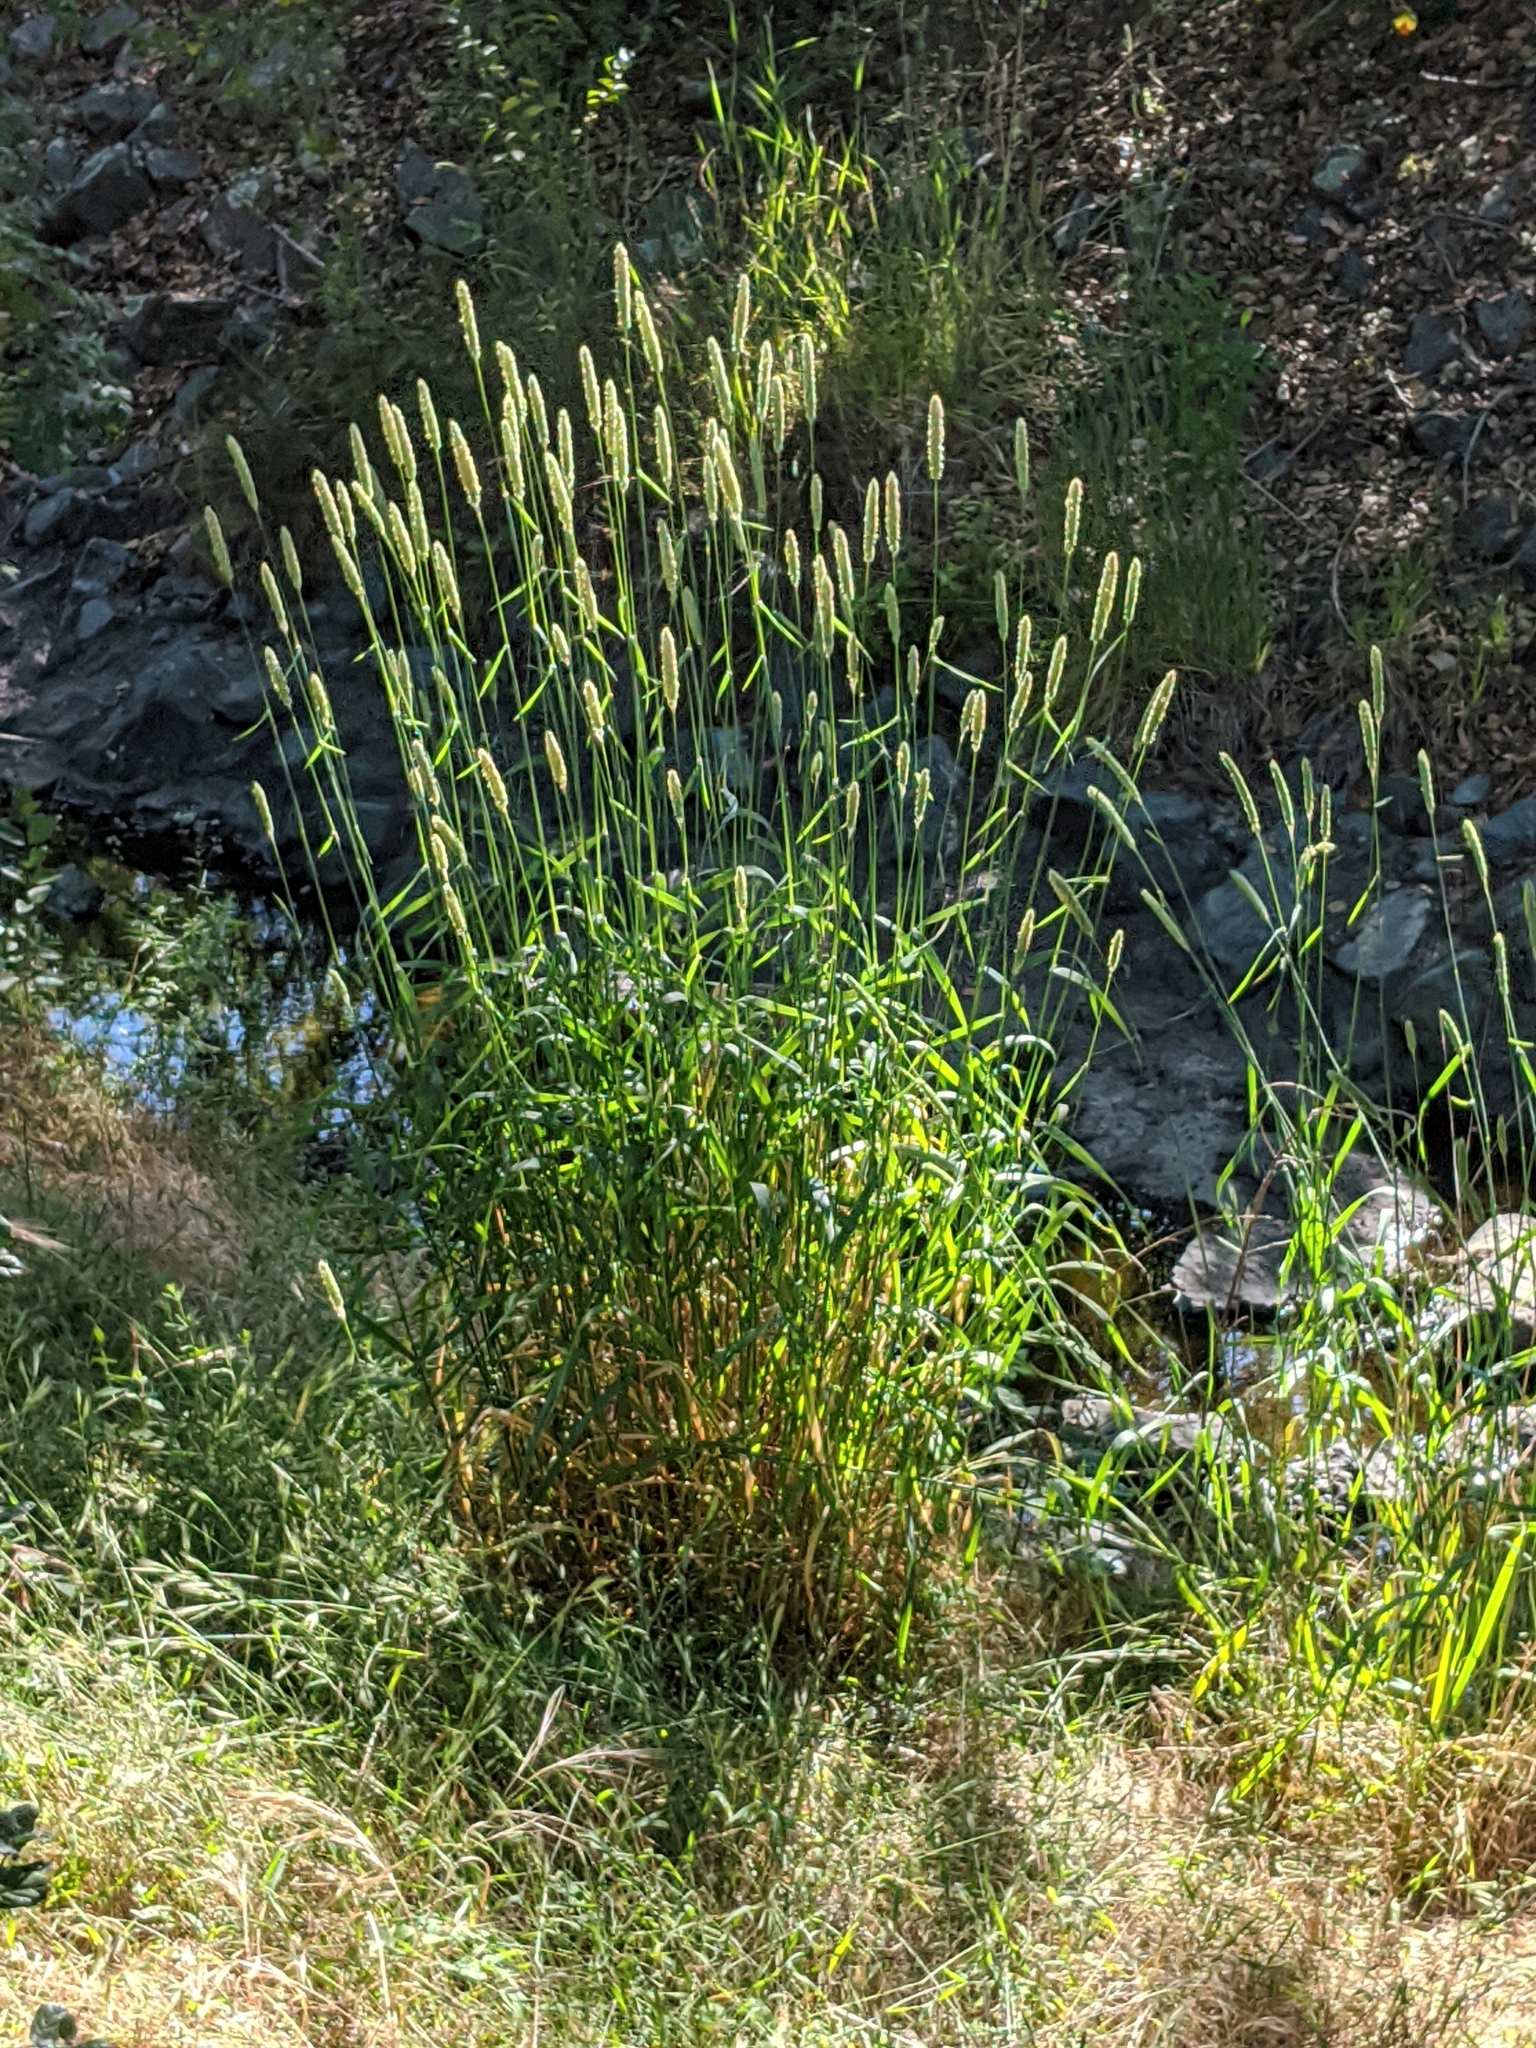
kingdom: Plantae
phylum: Tracheophyta
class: Liliopsida
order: Poales
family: Poaceae
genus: Phleum
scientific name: Phleum pratense
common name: Timothy grass
